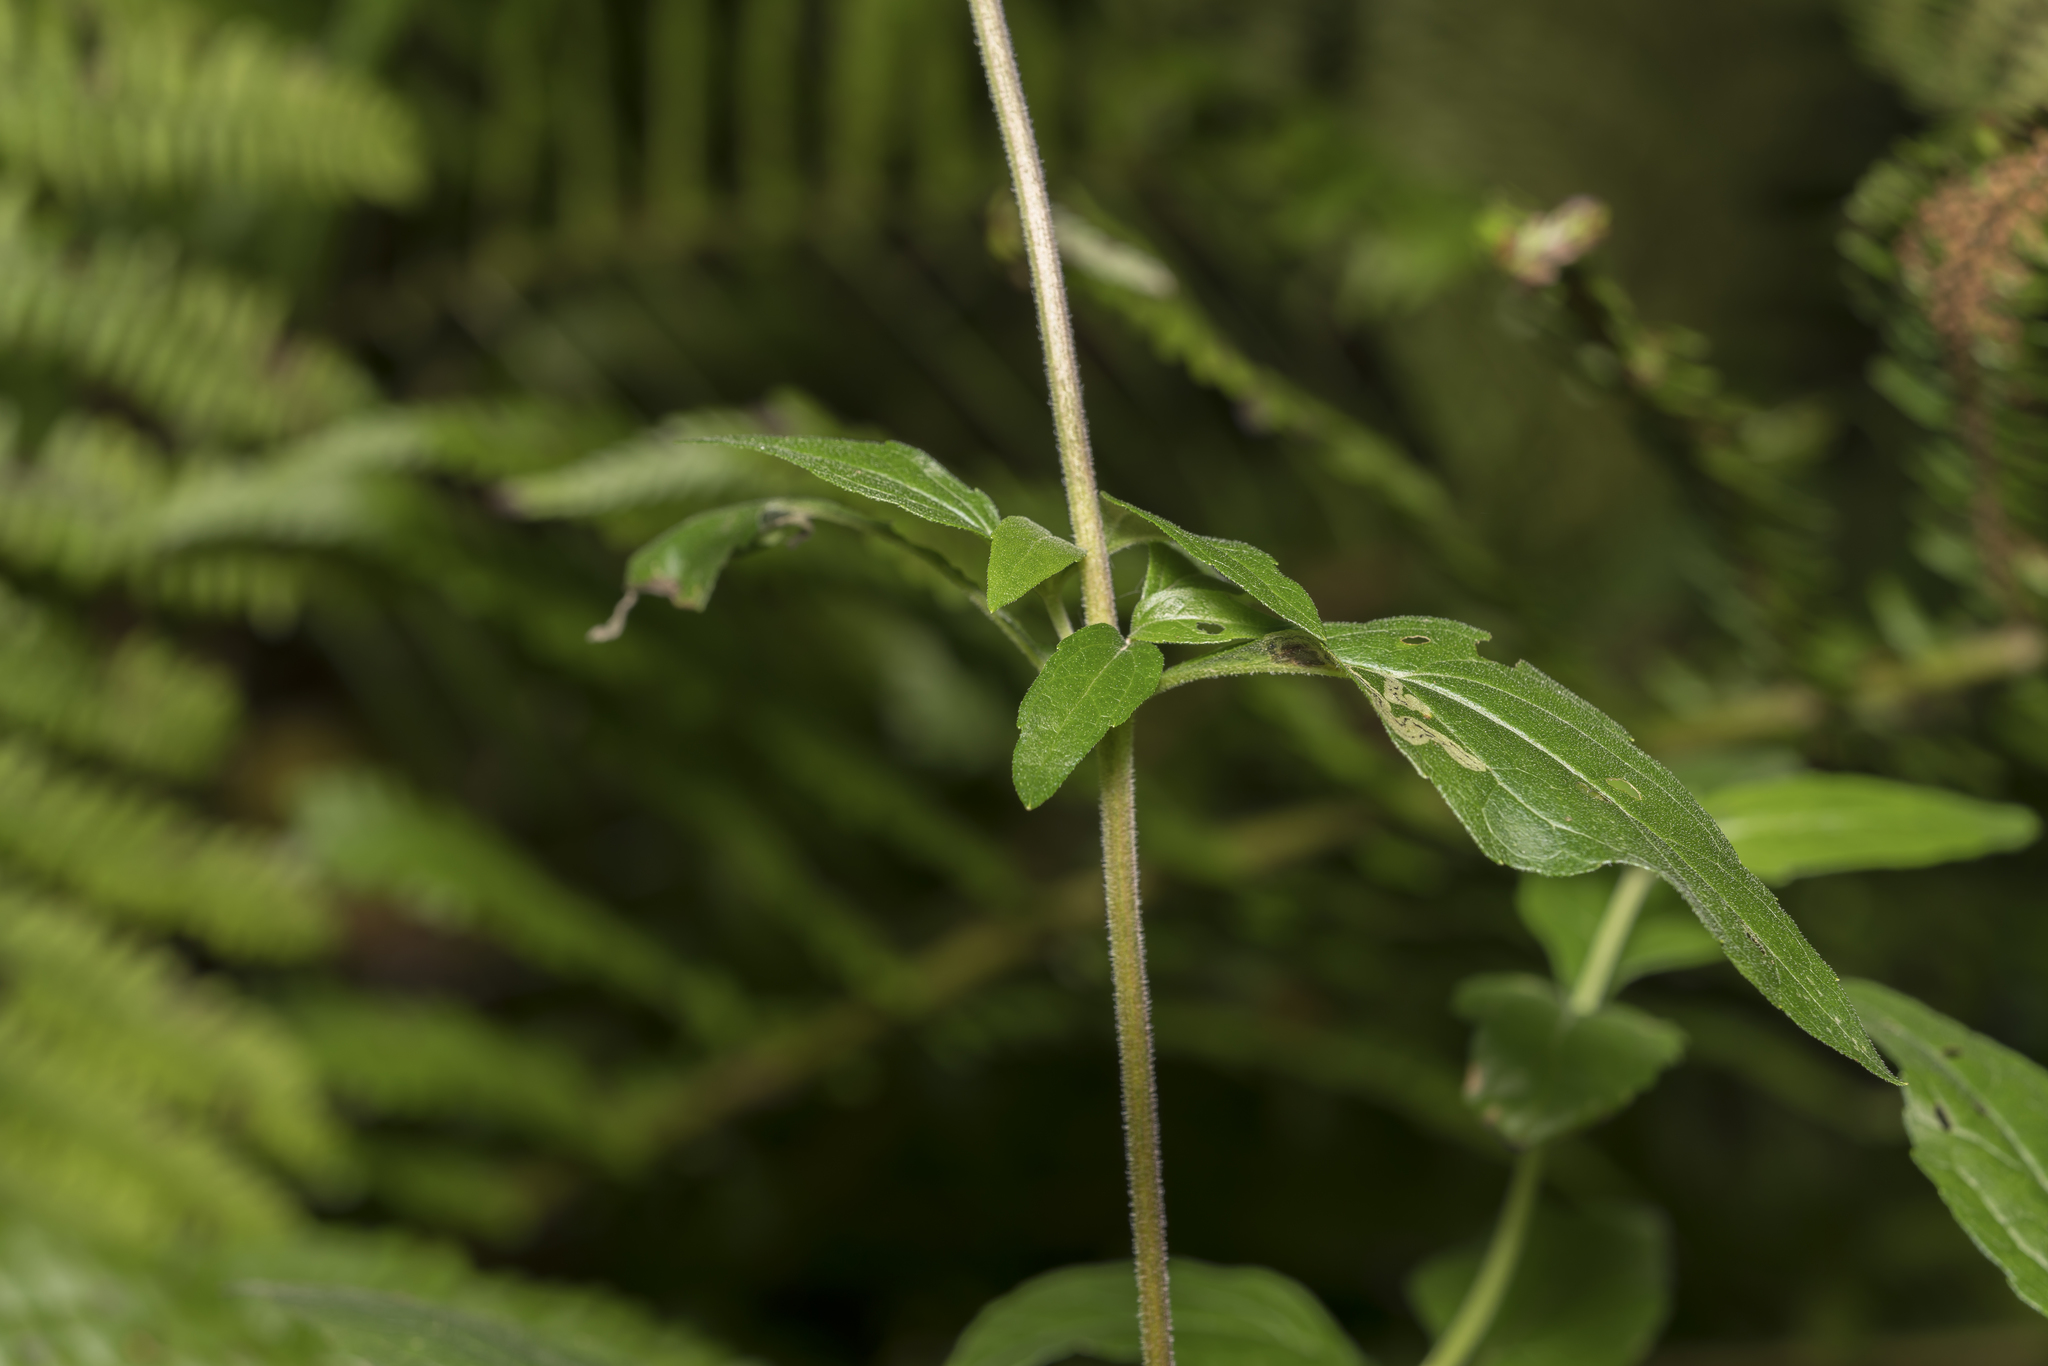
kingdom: Plantae
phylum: Tracheophyta
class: Magnoliopsida
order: Asterales
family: Asteraceae
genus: Eupatorium
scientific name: Eupatorium cannabinum
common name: Hemp-agrimony
